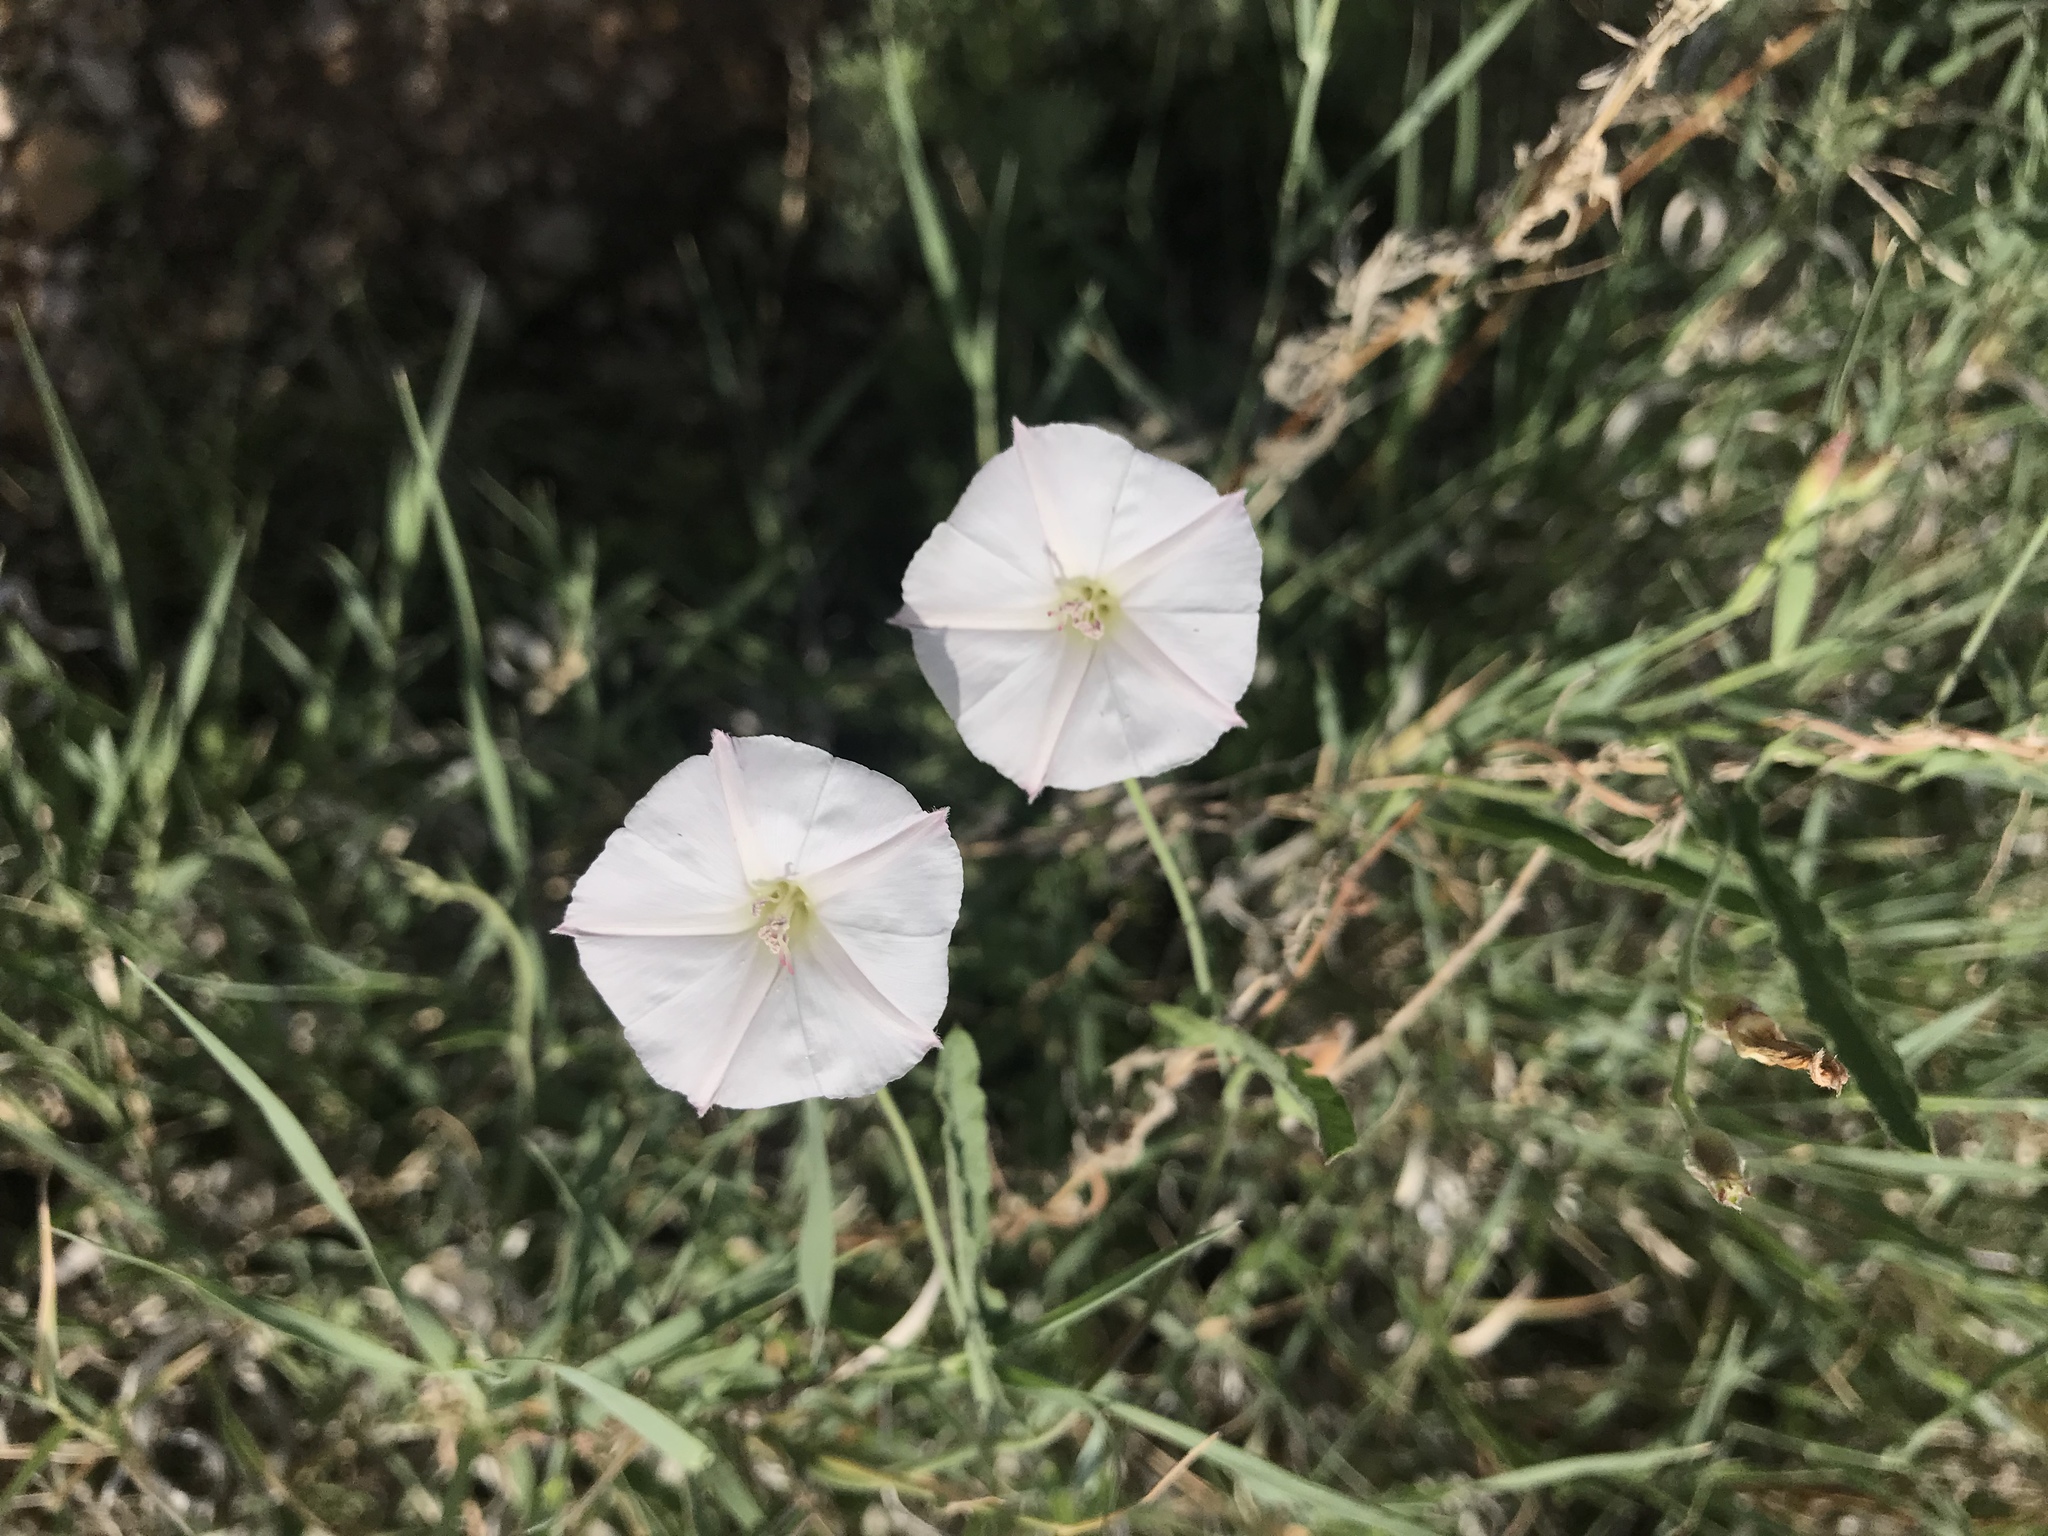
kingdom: Plantae
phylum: Tracheophyta
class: Magnoliopsida
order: Solanales
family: Convolvulaceae
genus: Convolvulus
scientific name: Convolvulus equitans
